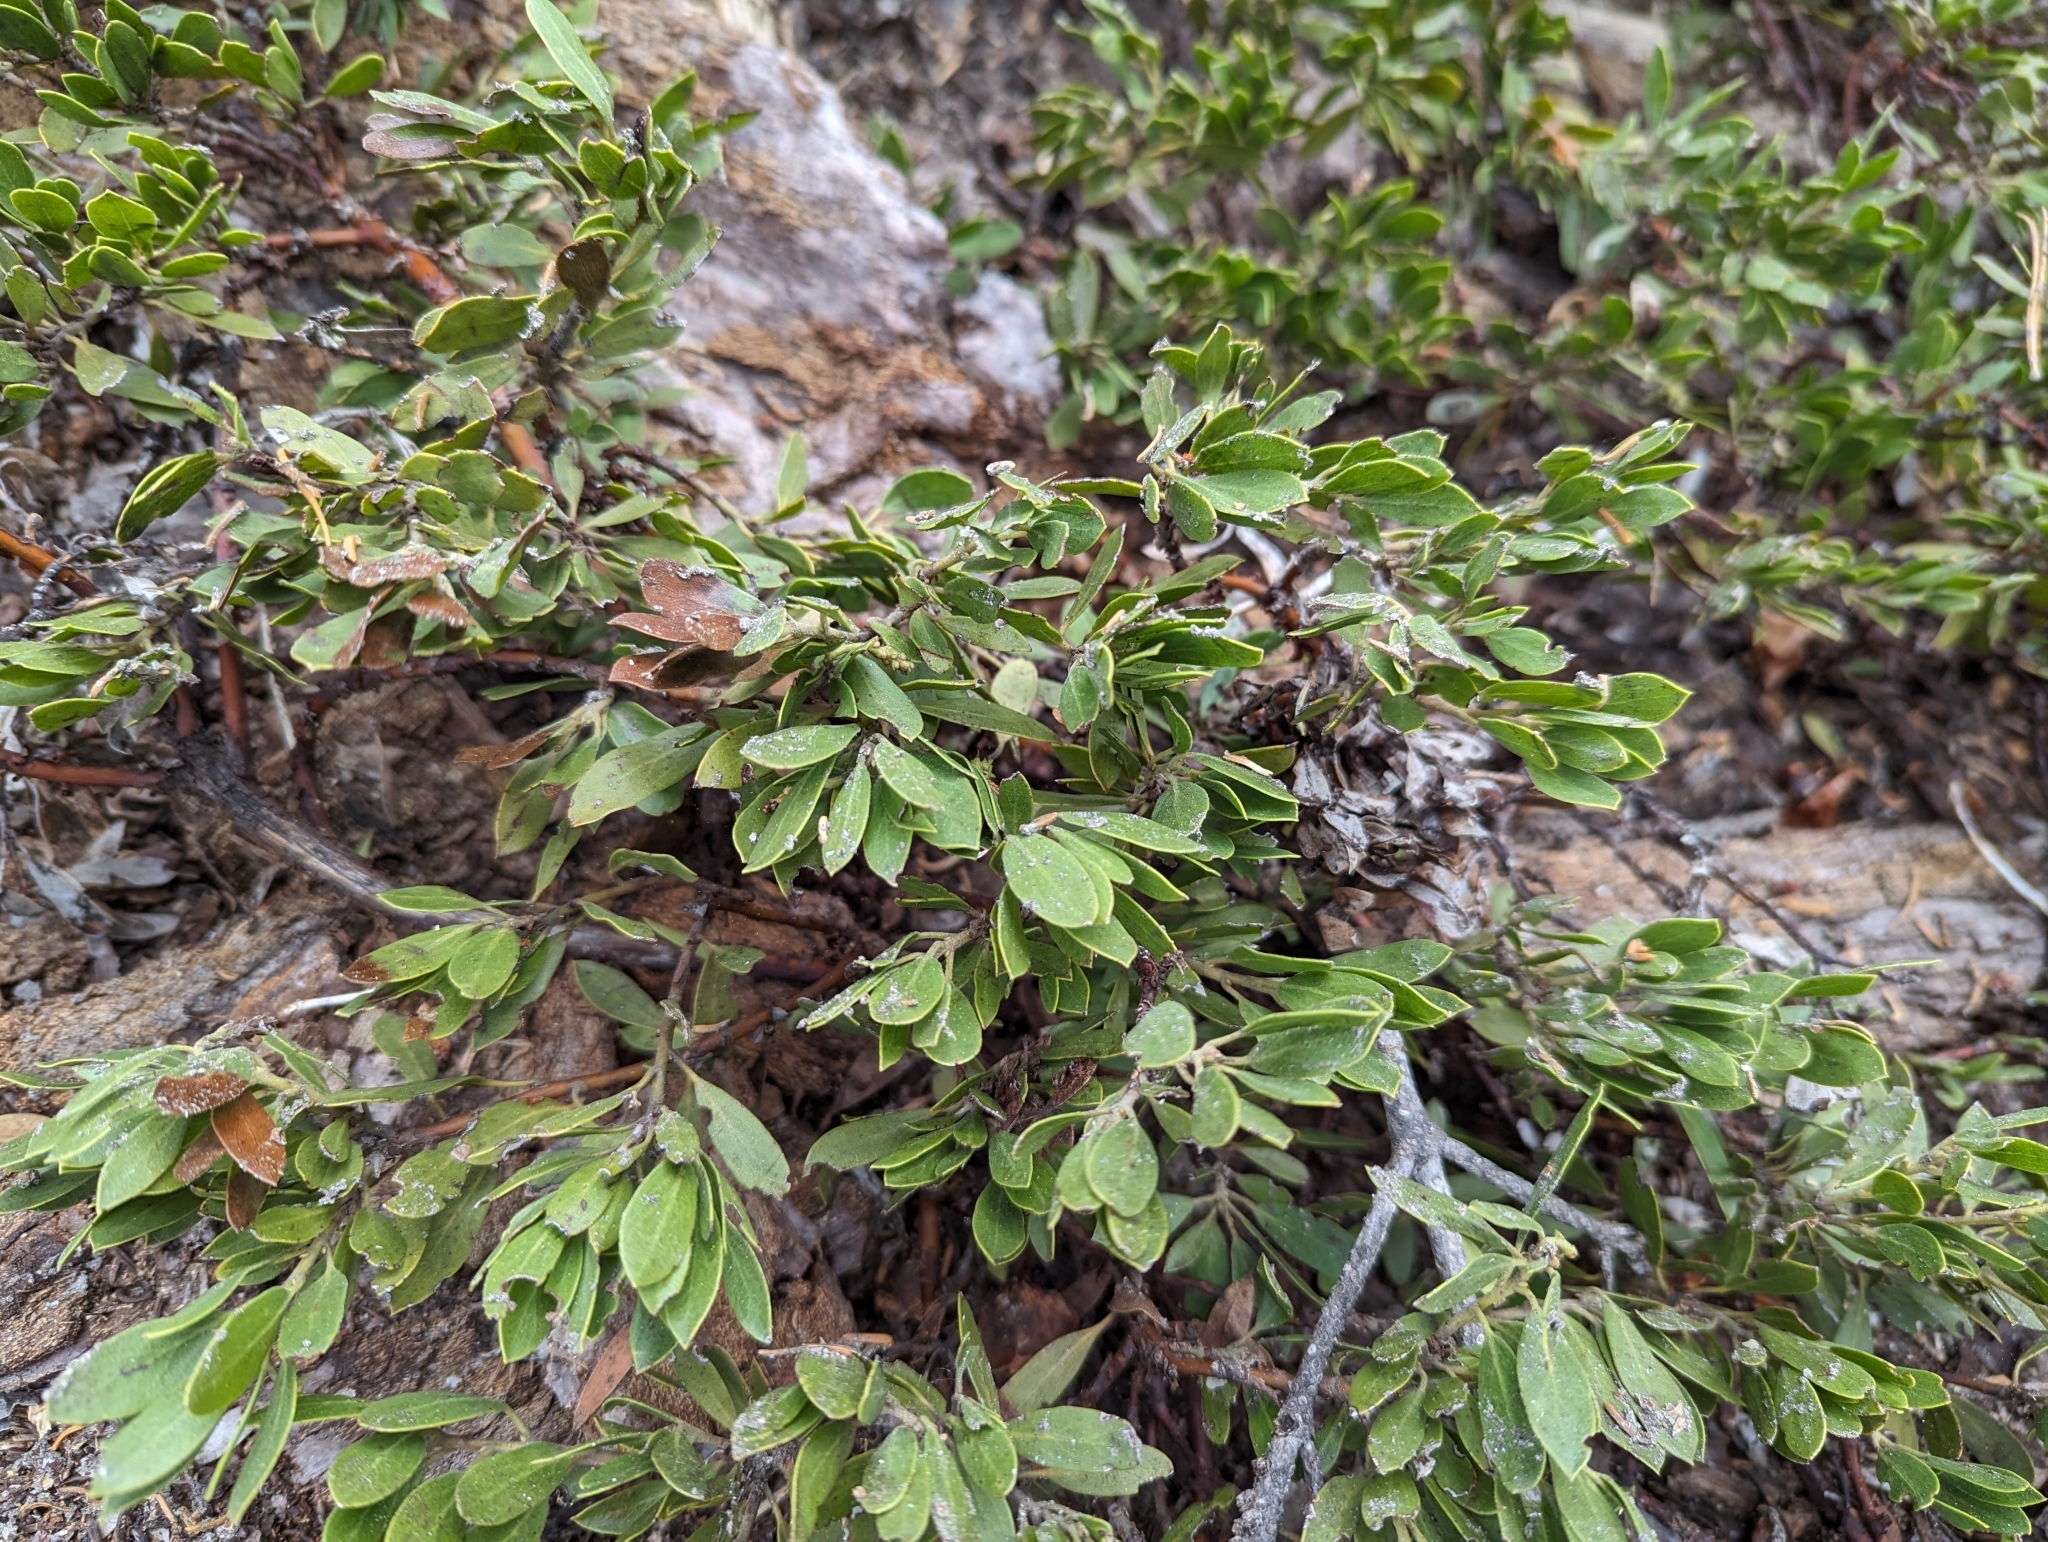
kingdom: Plantae
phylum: Tracheophyta
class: Magnoliopsida
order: Ericales
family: Ericaceae
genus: Arctostaphylos
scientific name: Arctostaphylos nevadensis
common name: Pinemat manzanita
